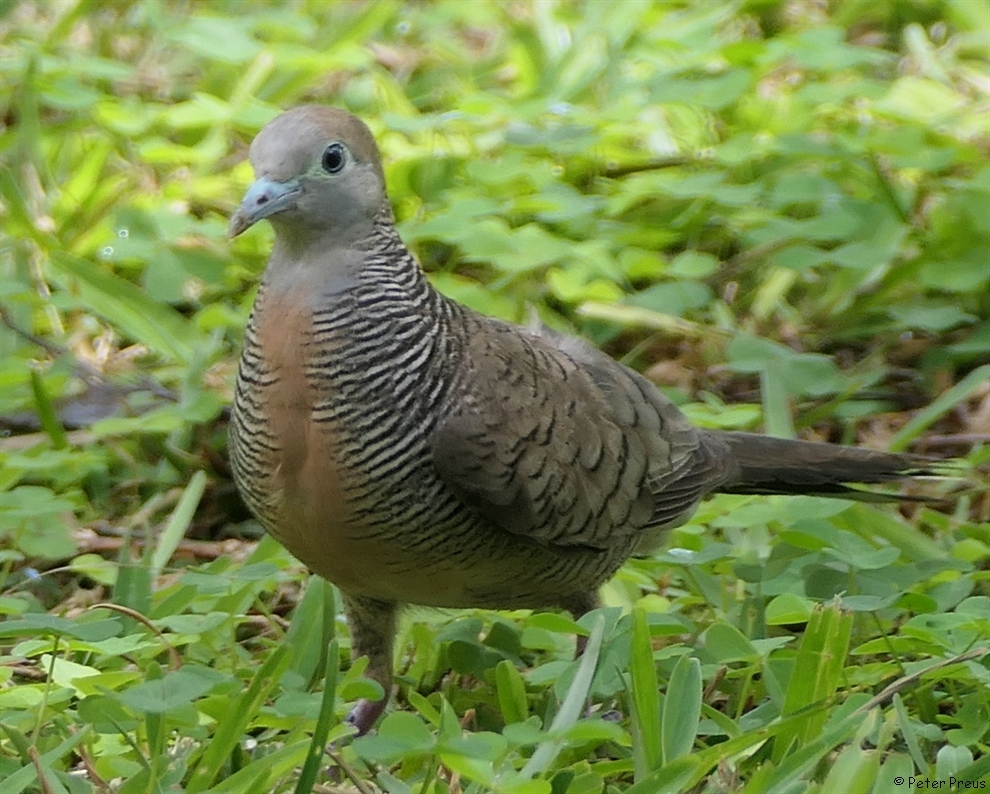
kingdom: Animalia
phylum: Chordata
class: Aves
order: Columbiformes
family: Columbidae
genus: Geopelia
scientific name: Geopelia striata
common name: Zebra dove
